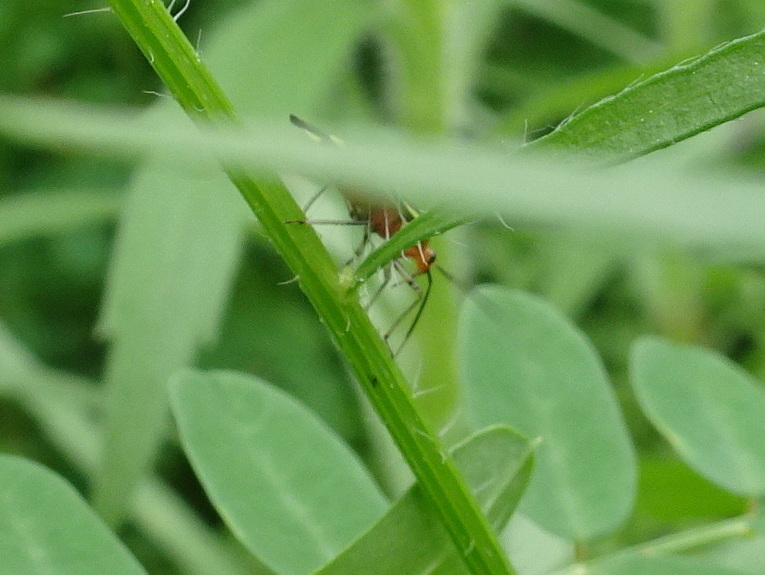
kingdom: Animalia
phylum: Arthropoda
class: Insecta
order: Hemiptera
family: Miridae
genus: Poecilocapsus
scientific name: Poecilocapsus lineatus
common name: Four-lined plant bug
